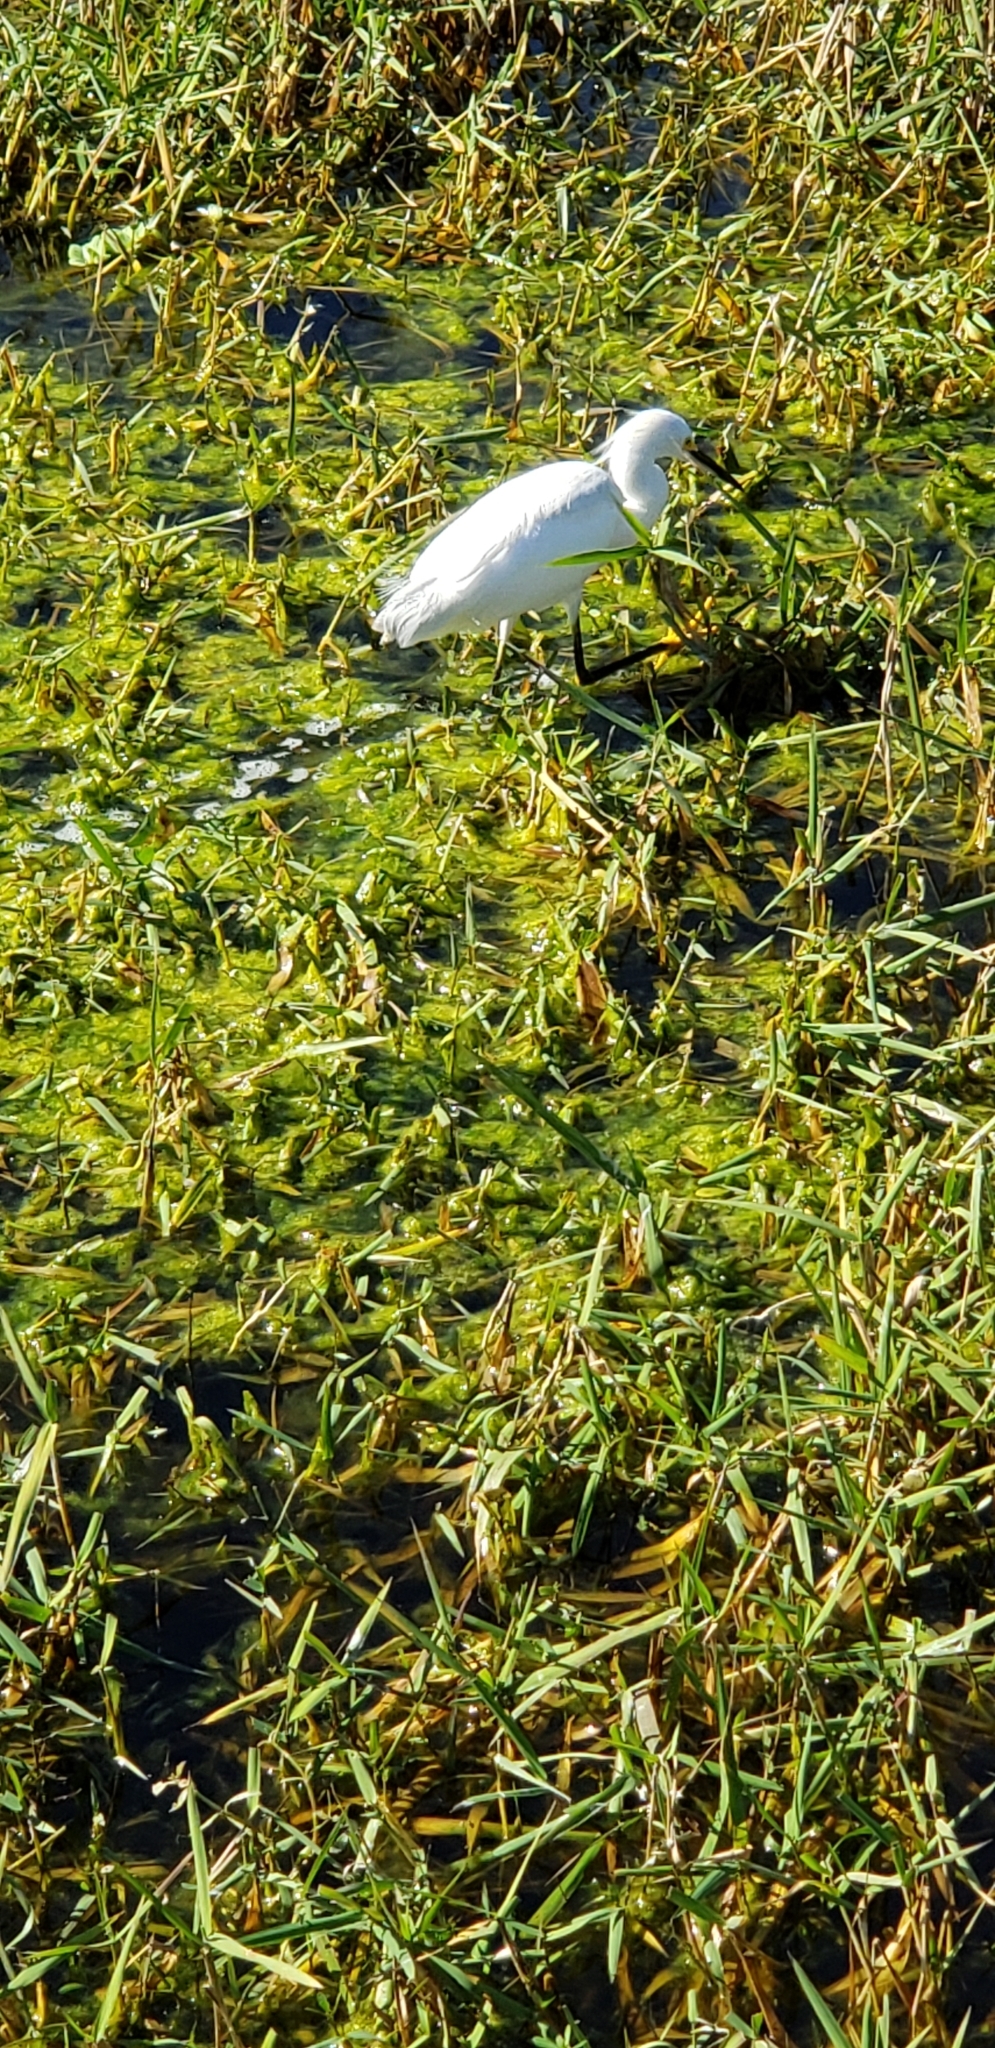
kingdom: Animalia
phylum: Chordata
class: Aves
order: Pelecaniformes
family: Ardeidae
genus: Egretta
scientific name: Egretta thula
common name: Snowy egret
